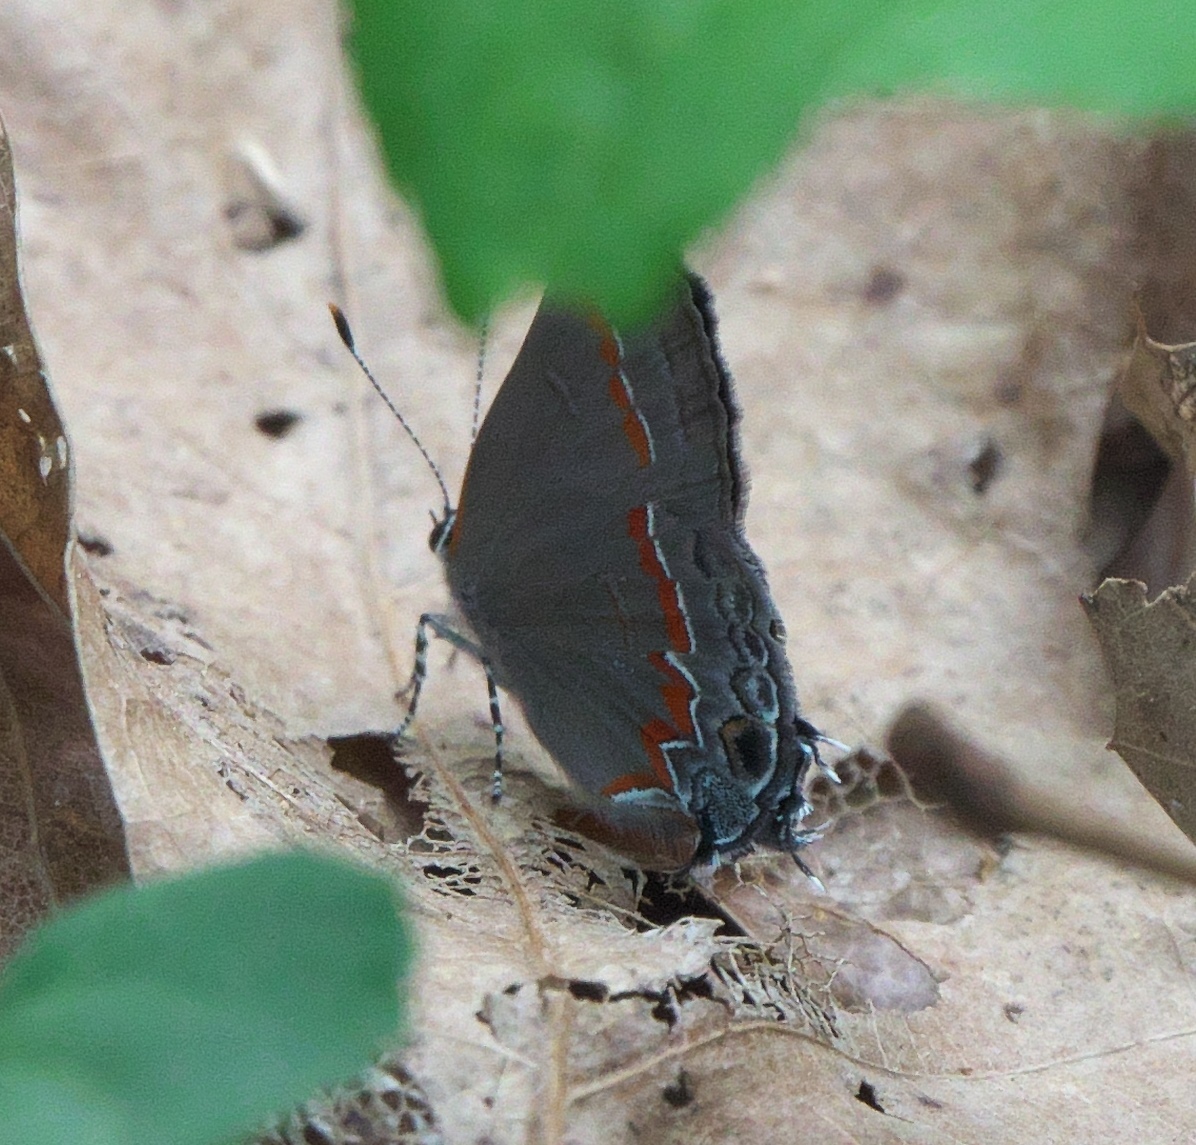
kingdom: Animalia
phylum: Arthropoda
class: Insecta
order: Lepidoptera
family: Lycaenidae
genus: Calycopis
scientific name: Calycopis cecrops
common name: Red-banded hairstreak
